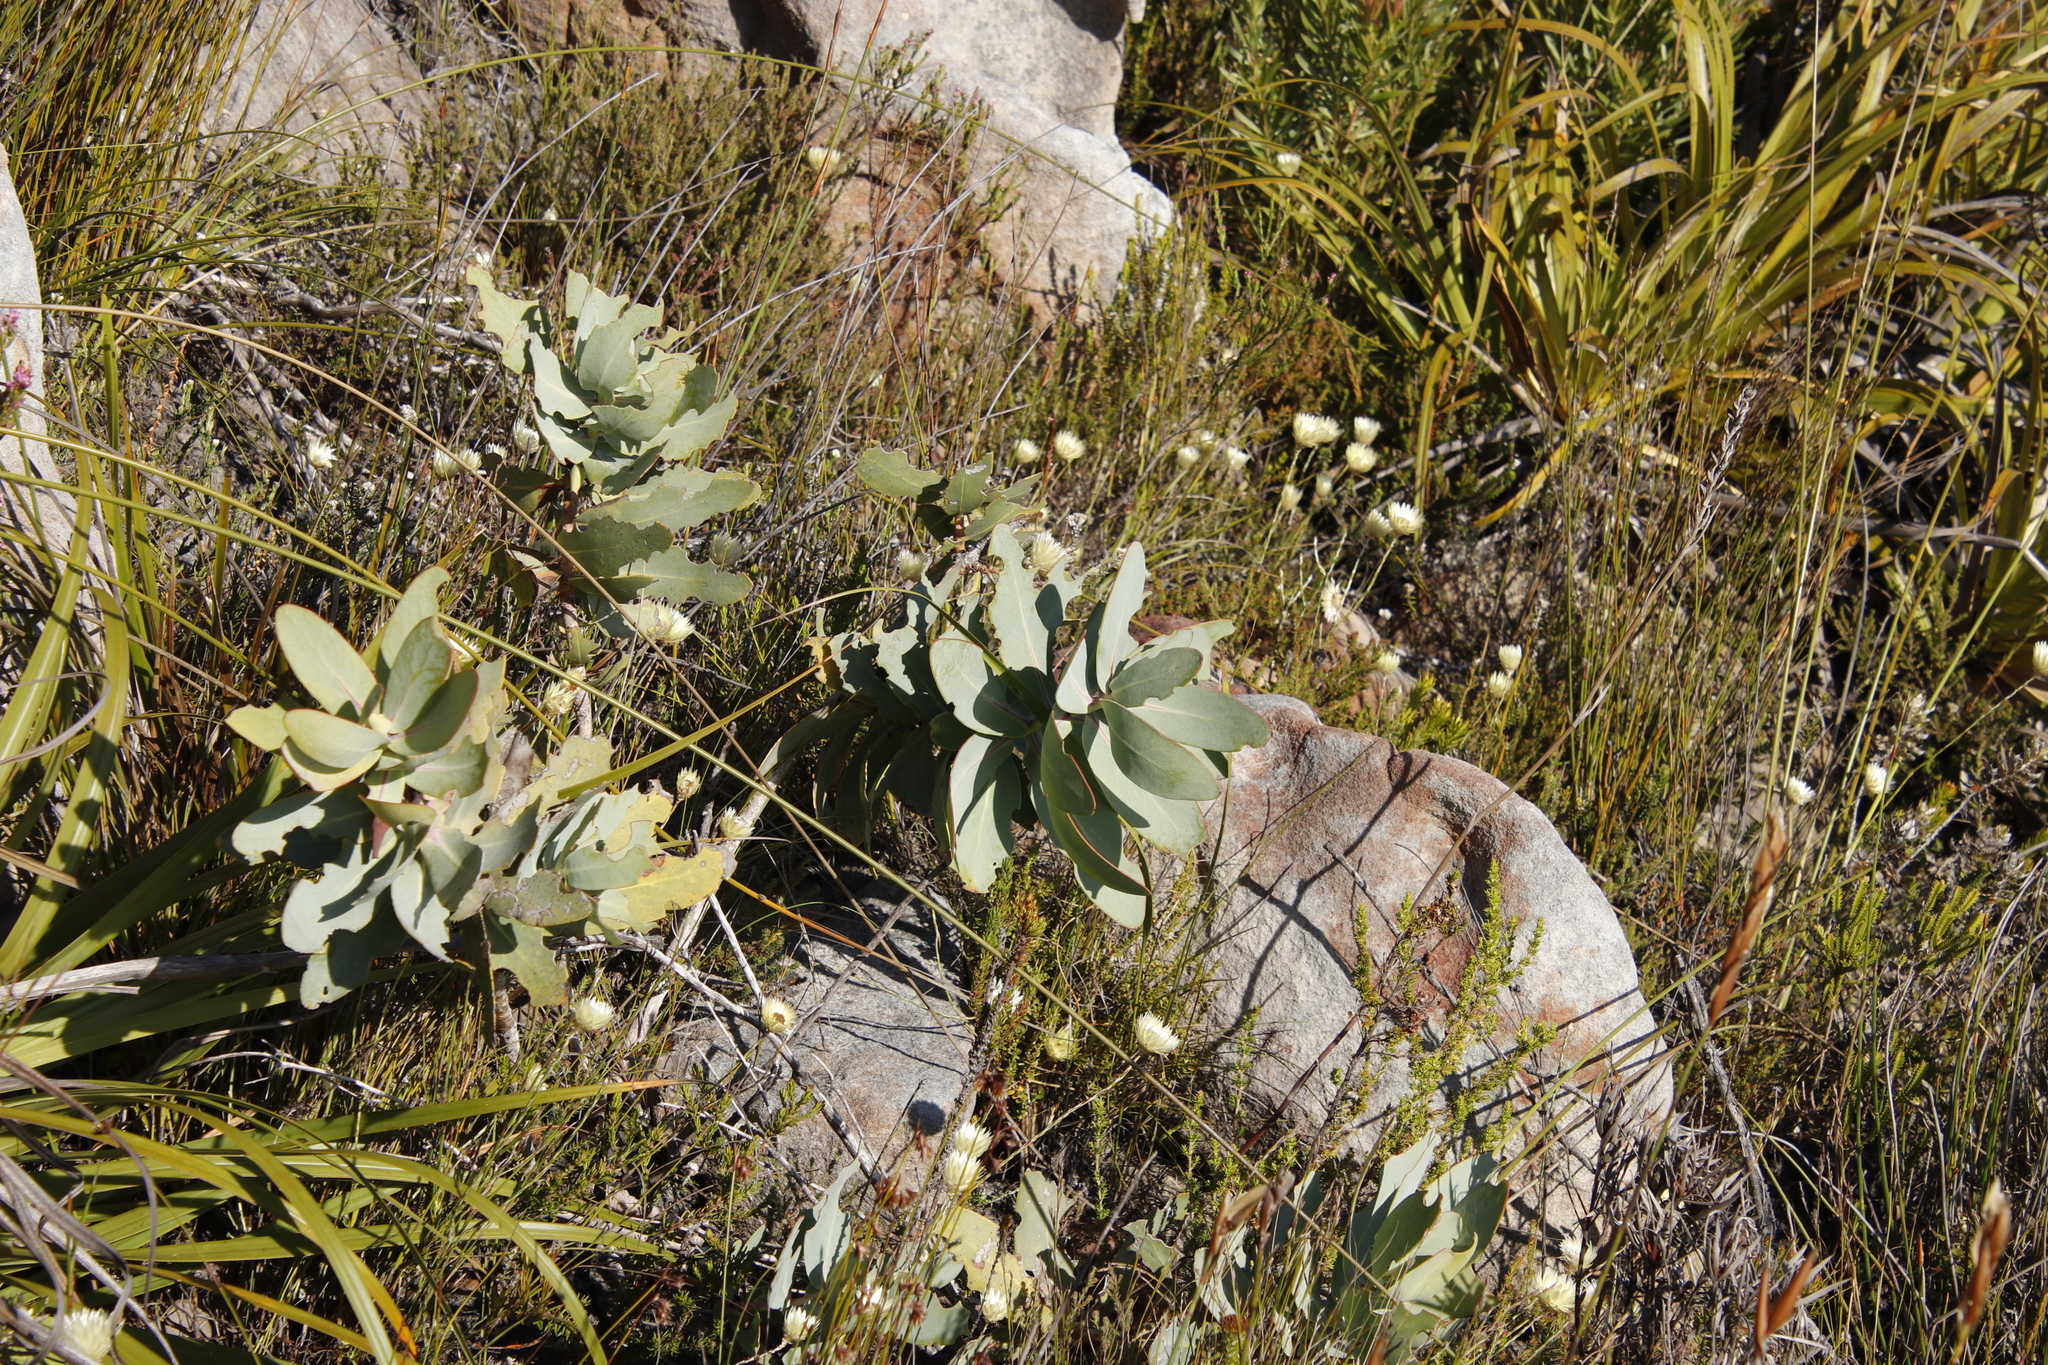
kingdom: Plantae
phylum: Tracheophyta
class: Magnoliopsida
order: Proteales
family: Proteaceae
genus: Protea
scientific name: Protea nitida
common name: Tree protea
